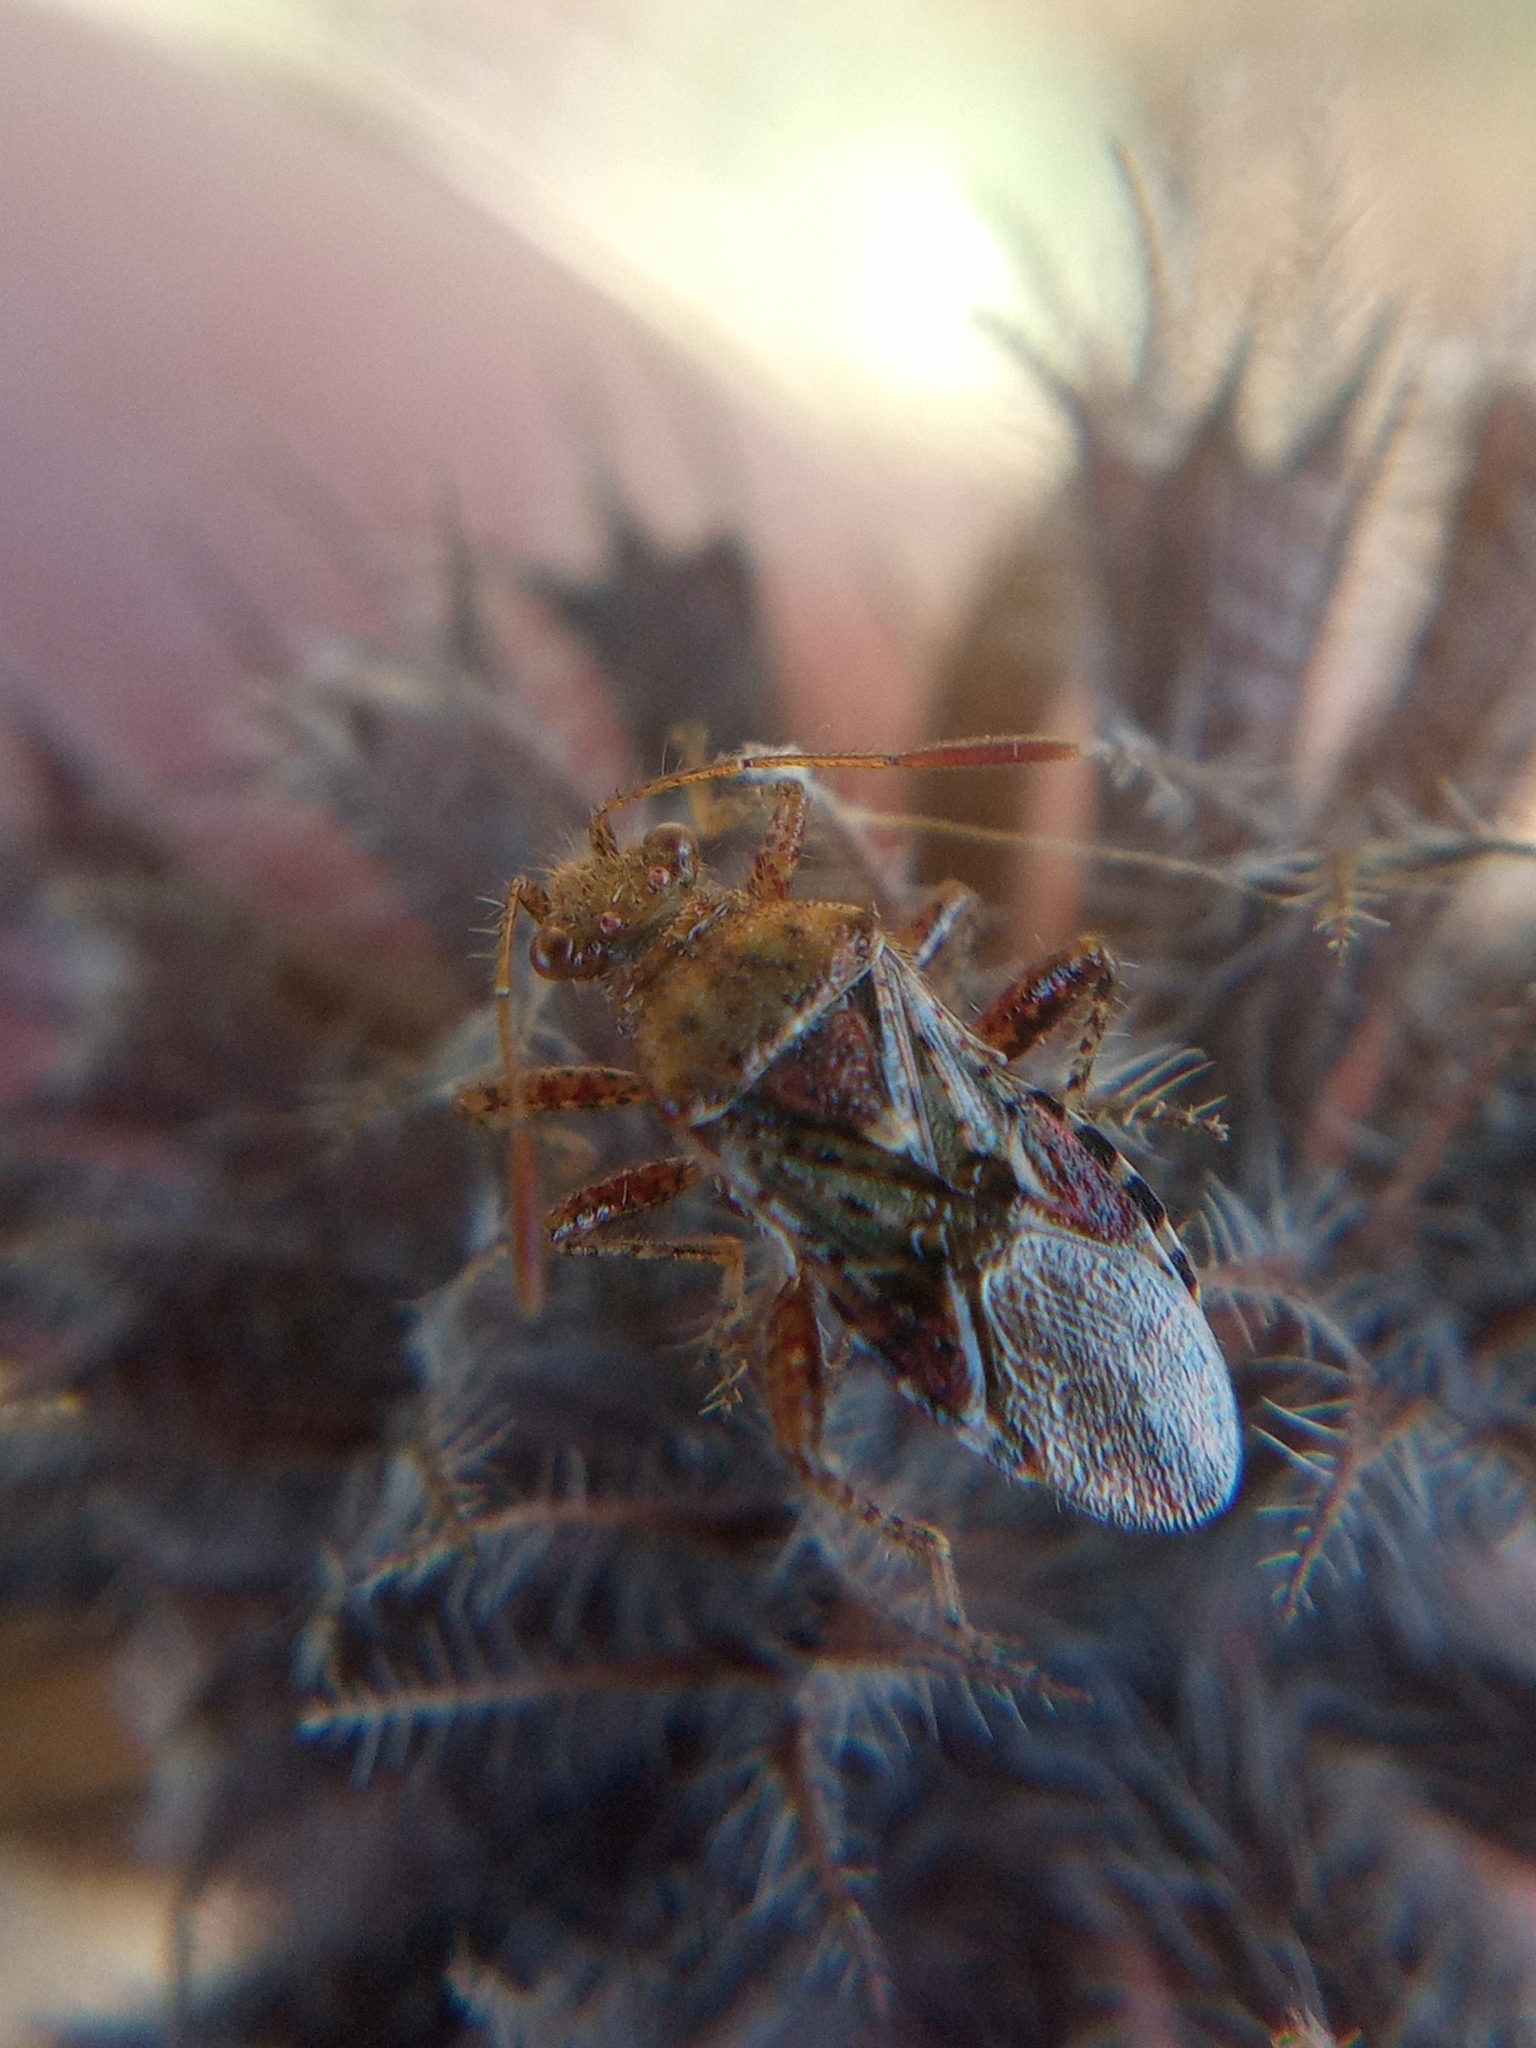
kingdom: Animalia
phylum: Arthropoda
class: Insecta
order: Hemiptera
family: Rhopalidae
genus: Rhopalus
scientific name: Rhopalus subrufus
